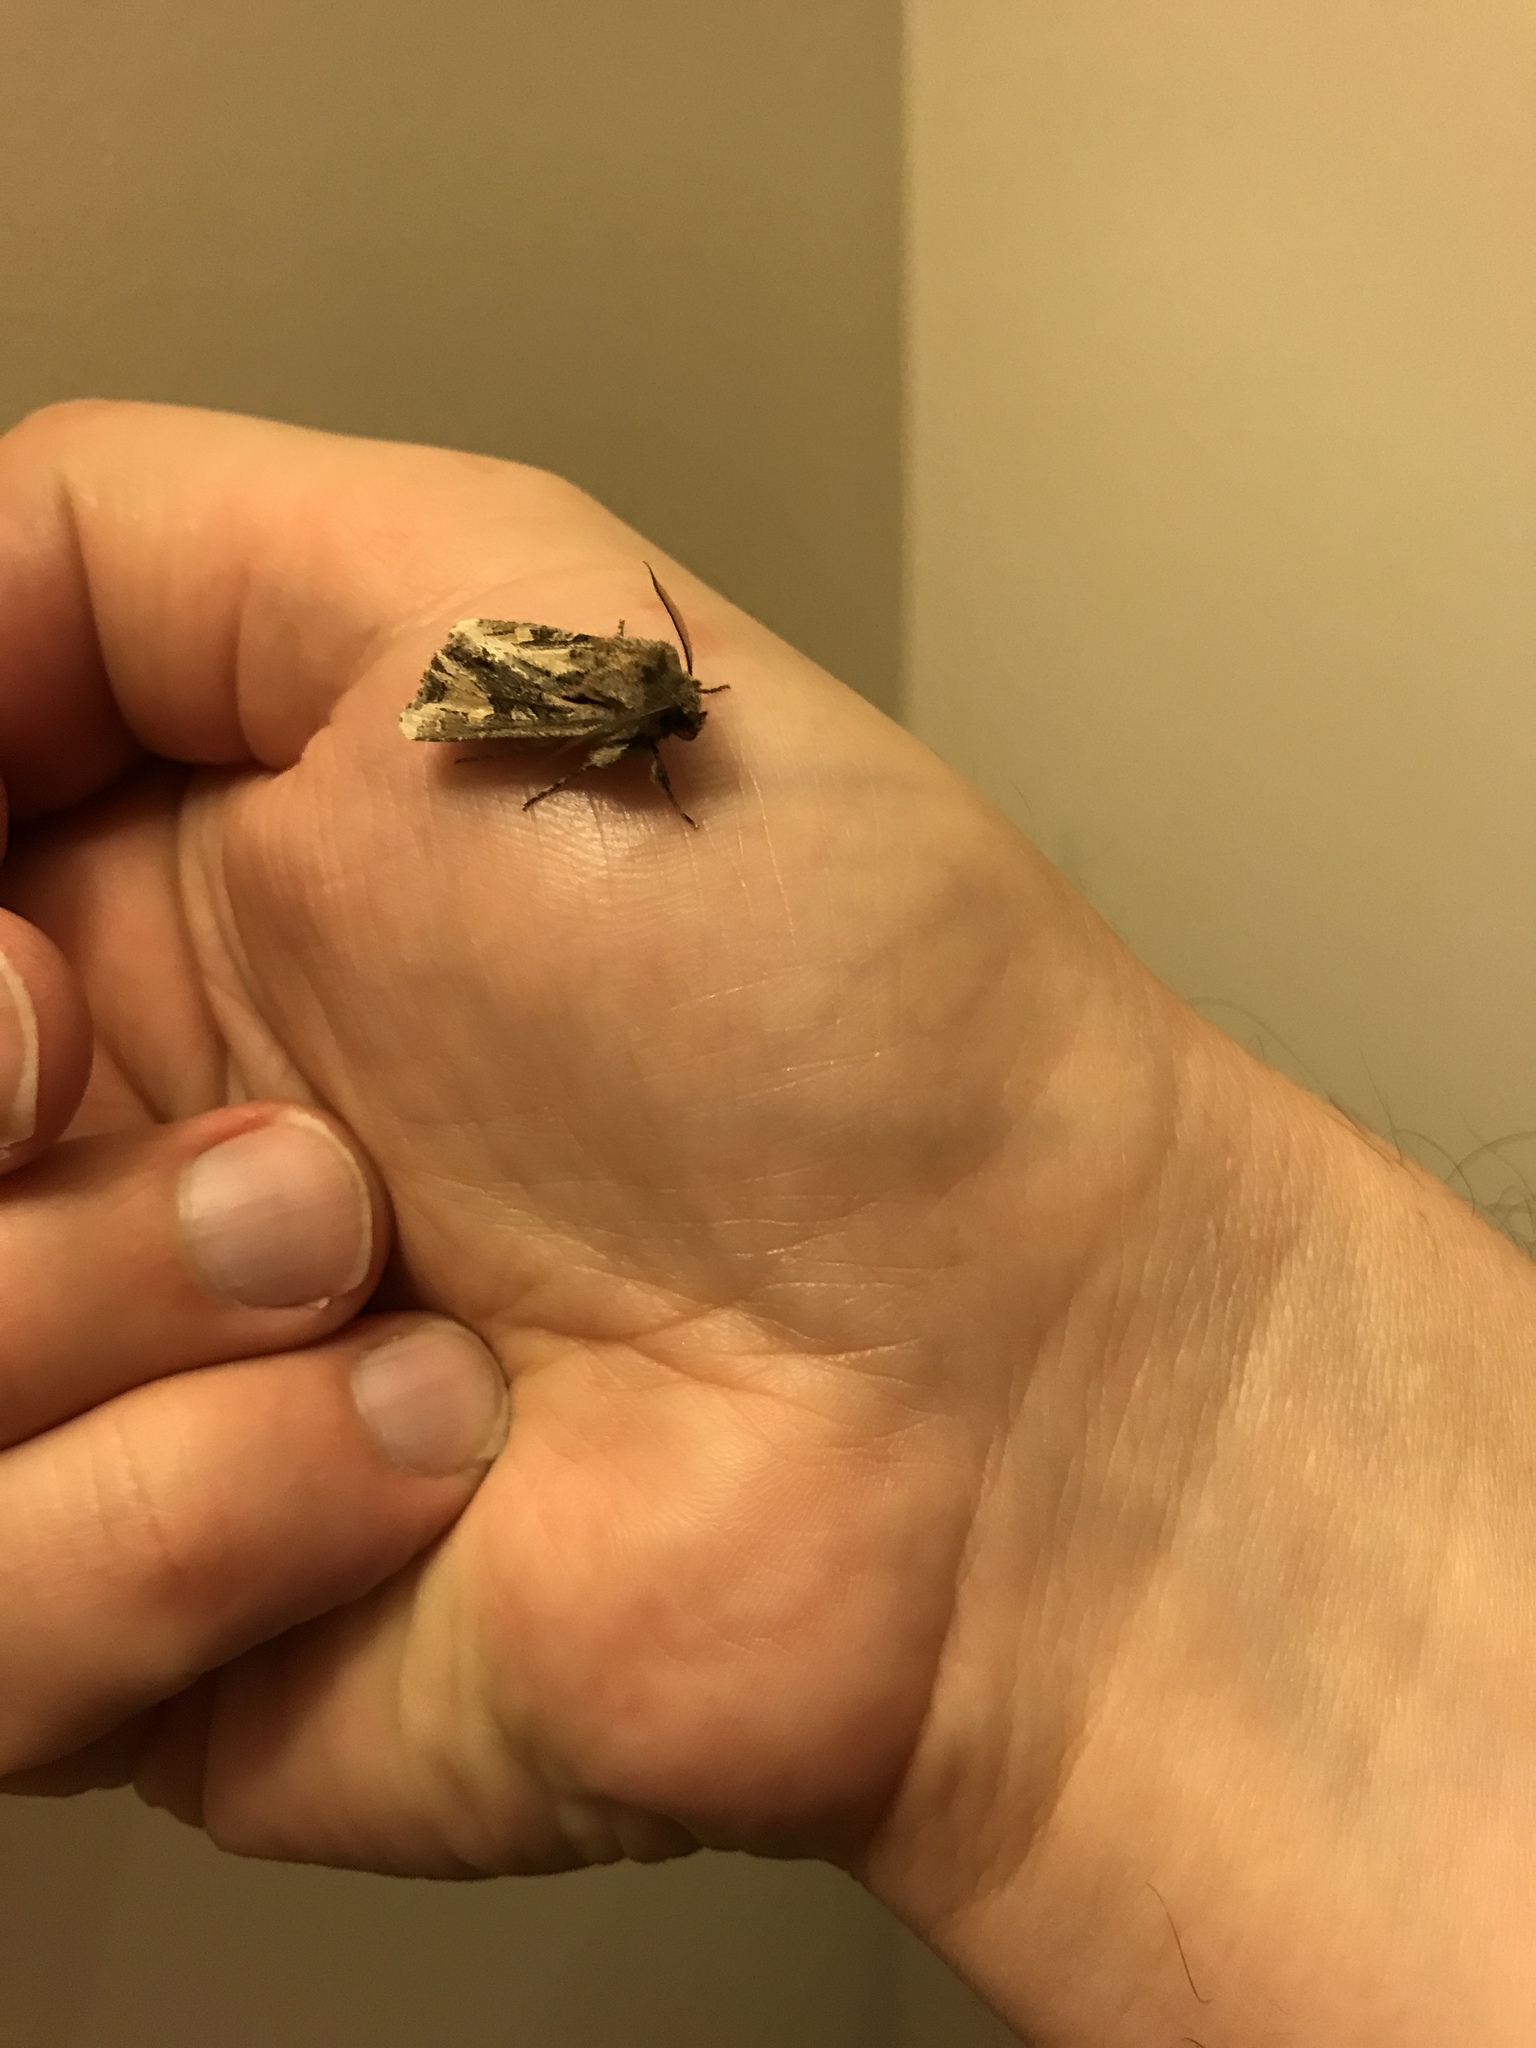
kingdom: Animalia
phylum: Arthropoda
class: Insecta
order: Lepidoptera
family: Noctuidae
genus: Ichneutica
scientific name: Ichneutica
